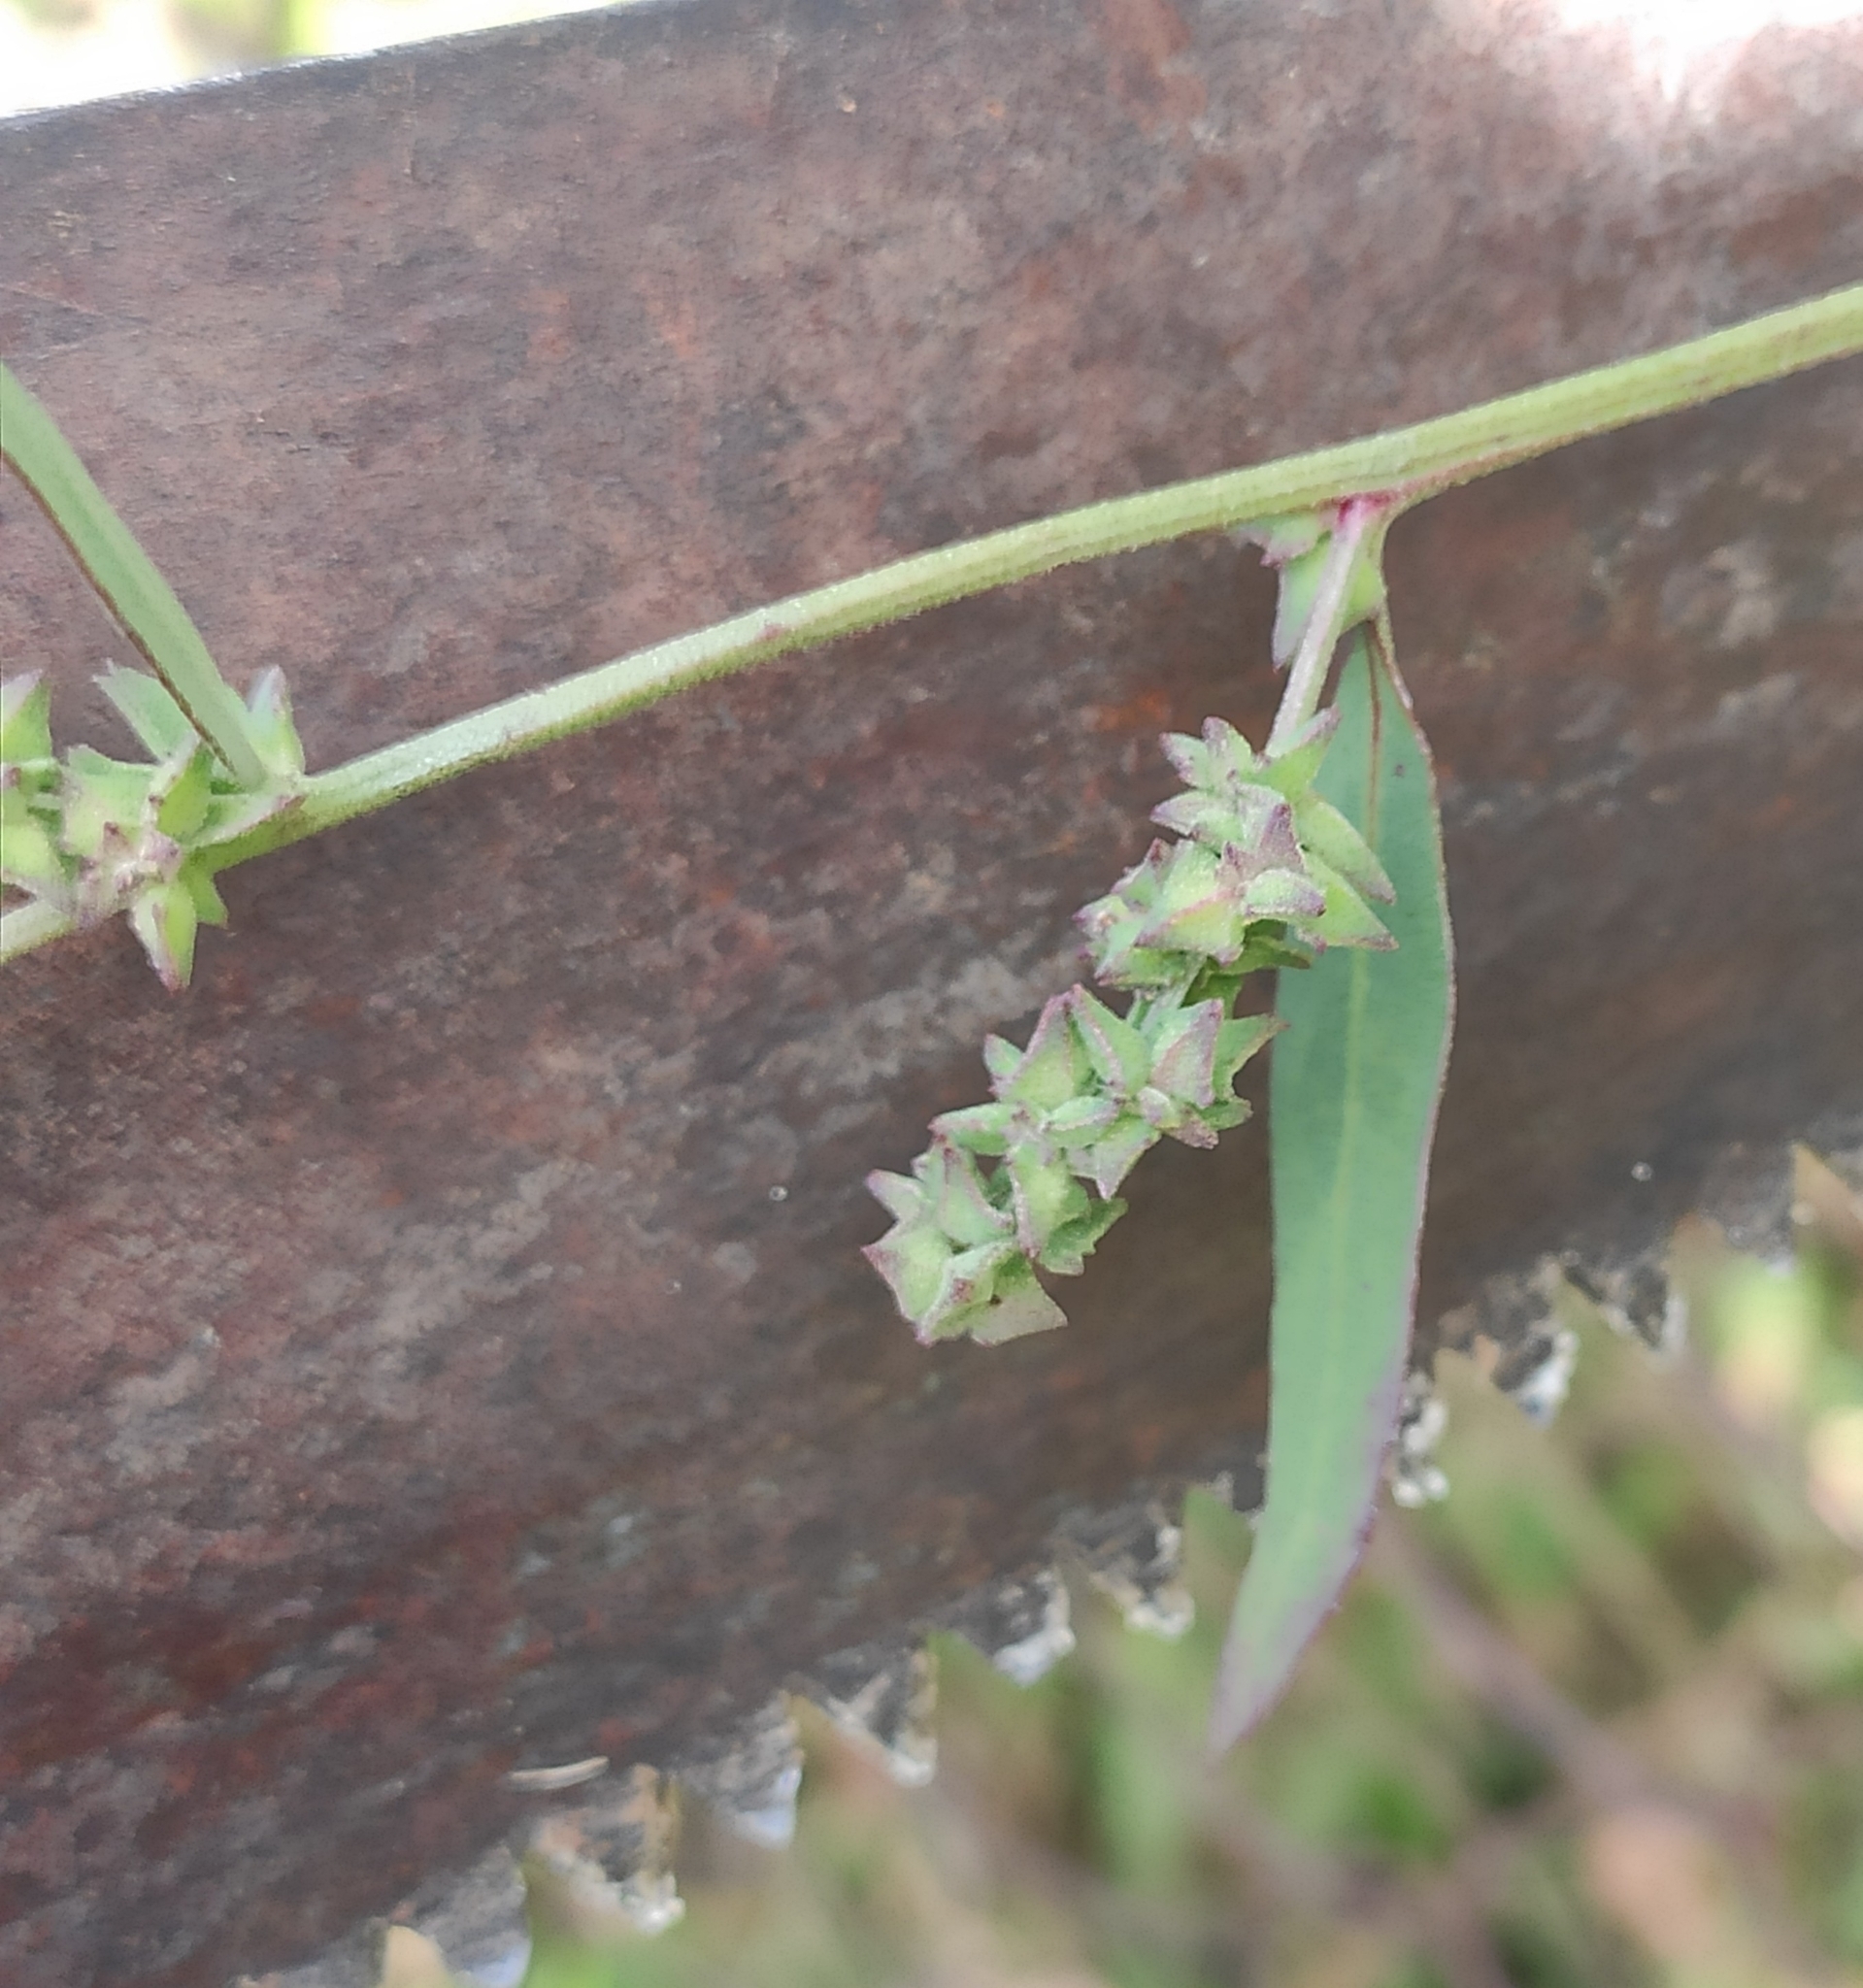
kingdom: Plantae
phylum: Tracheophyta
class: Magnoliopsida
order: Caryophyllales
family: Amaranthaceae
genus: Atriplex
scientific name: Atriplex patula
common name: Common orache
